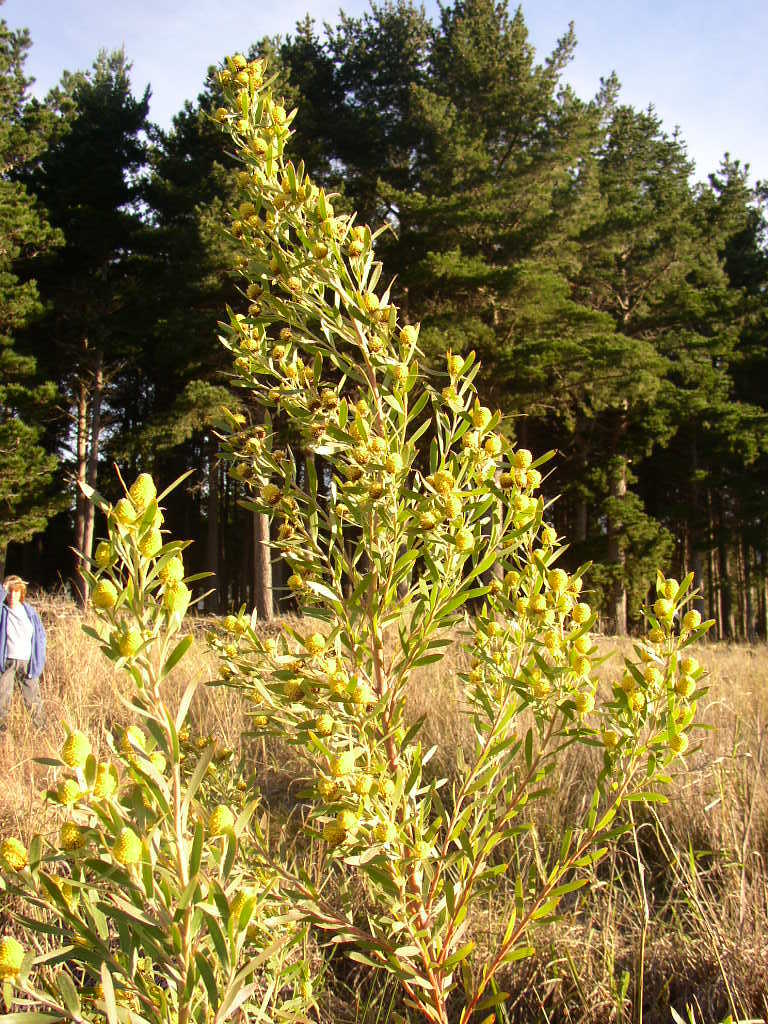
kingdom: Plantae
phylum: Tracheophyta
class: Magnoliopsida
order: Proteales
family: Proteaceae
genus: Leucadendron
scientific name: Leucadendron macowanii
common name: Acacia-leaf conebush
